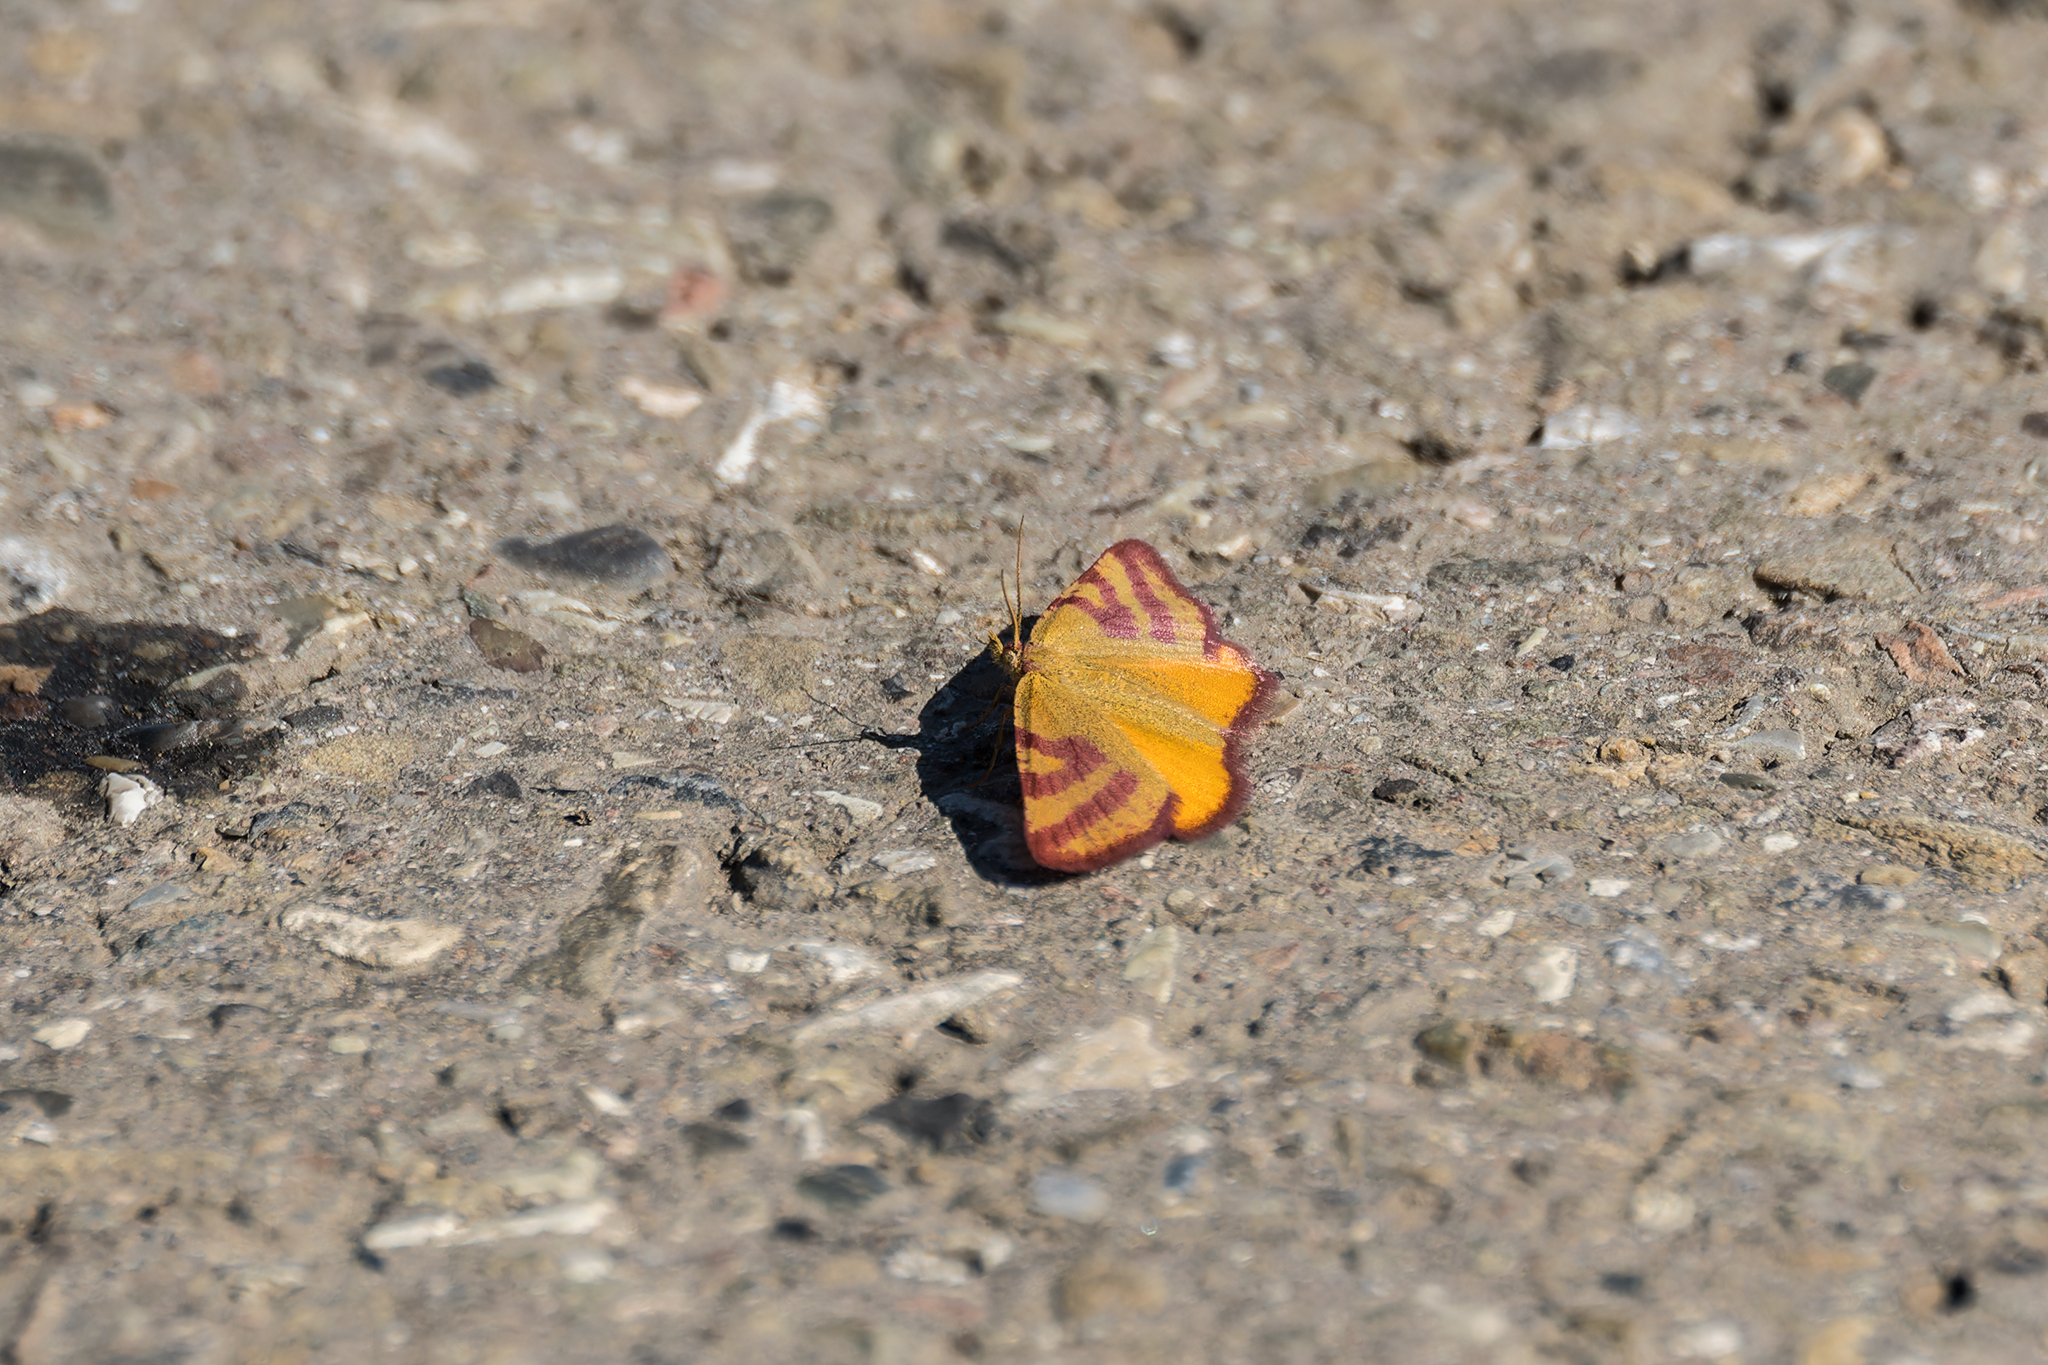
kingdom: Animalia
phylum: Arthropoda
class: Insecta
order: Lepidoptera
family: Geometridae
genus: Lythria
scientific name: Lythria purpuraria
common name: Purple-barred yellow
